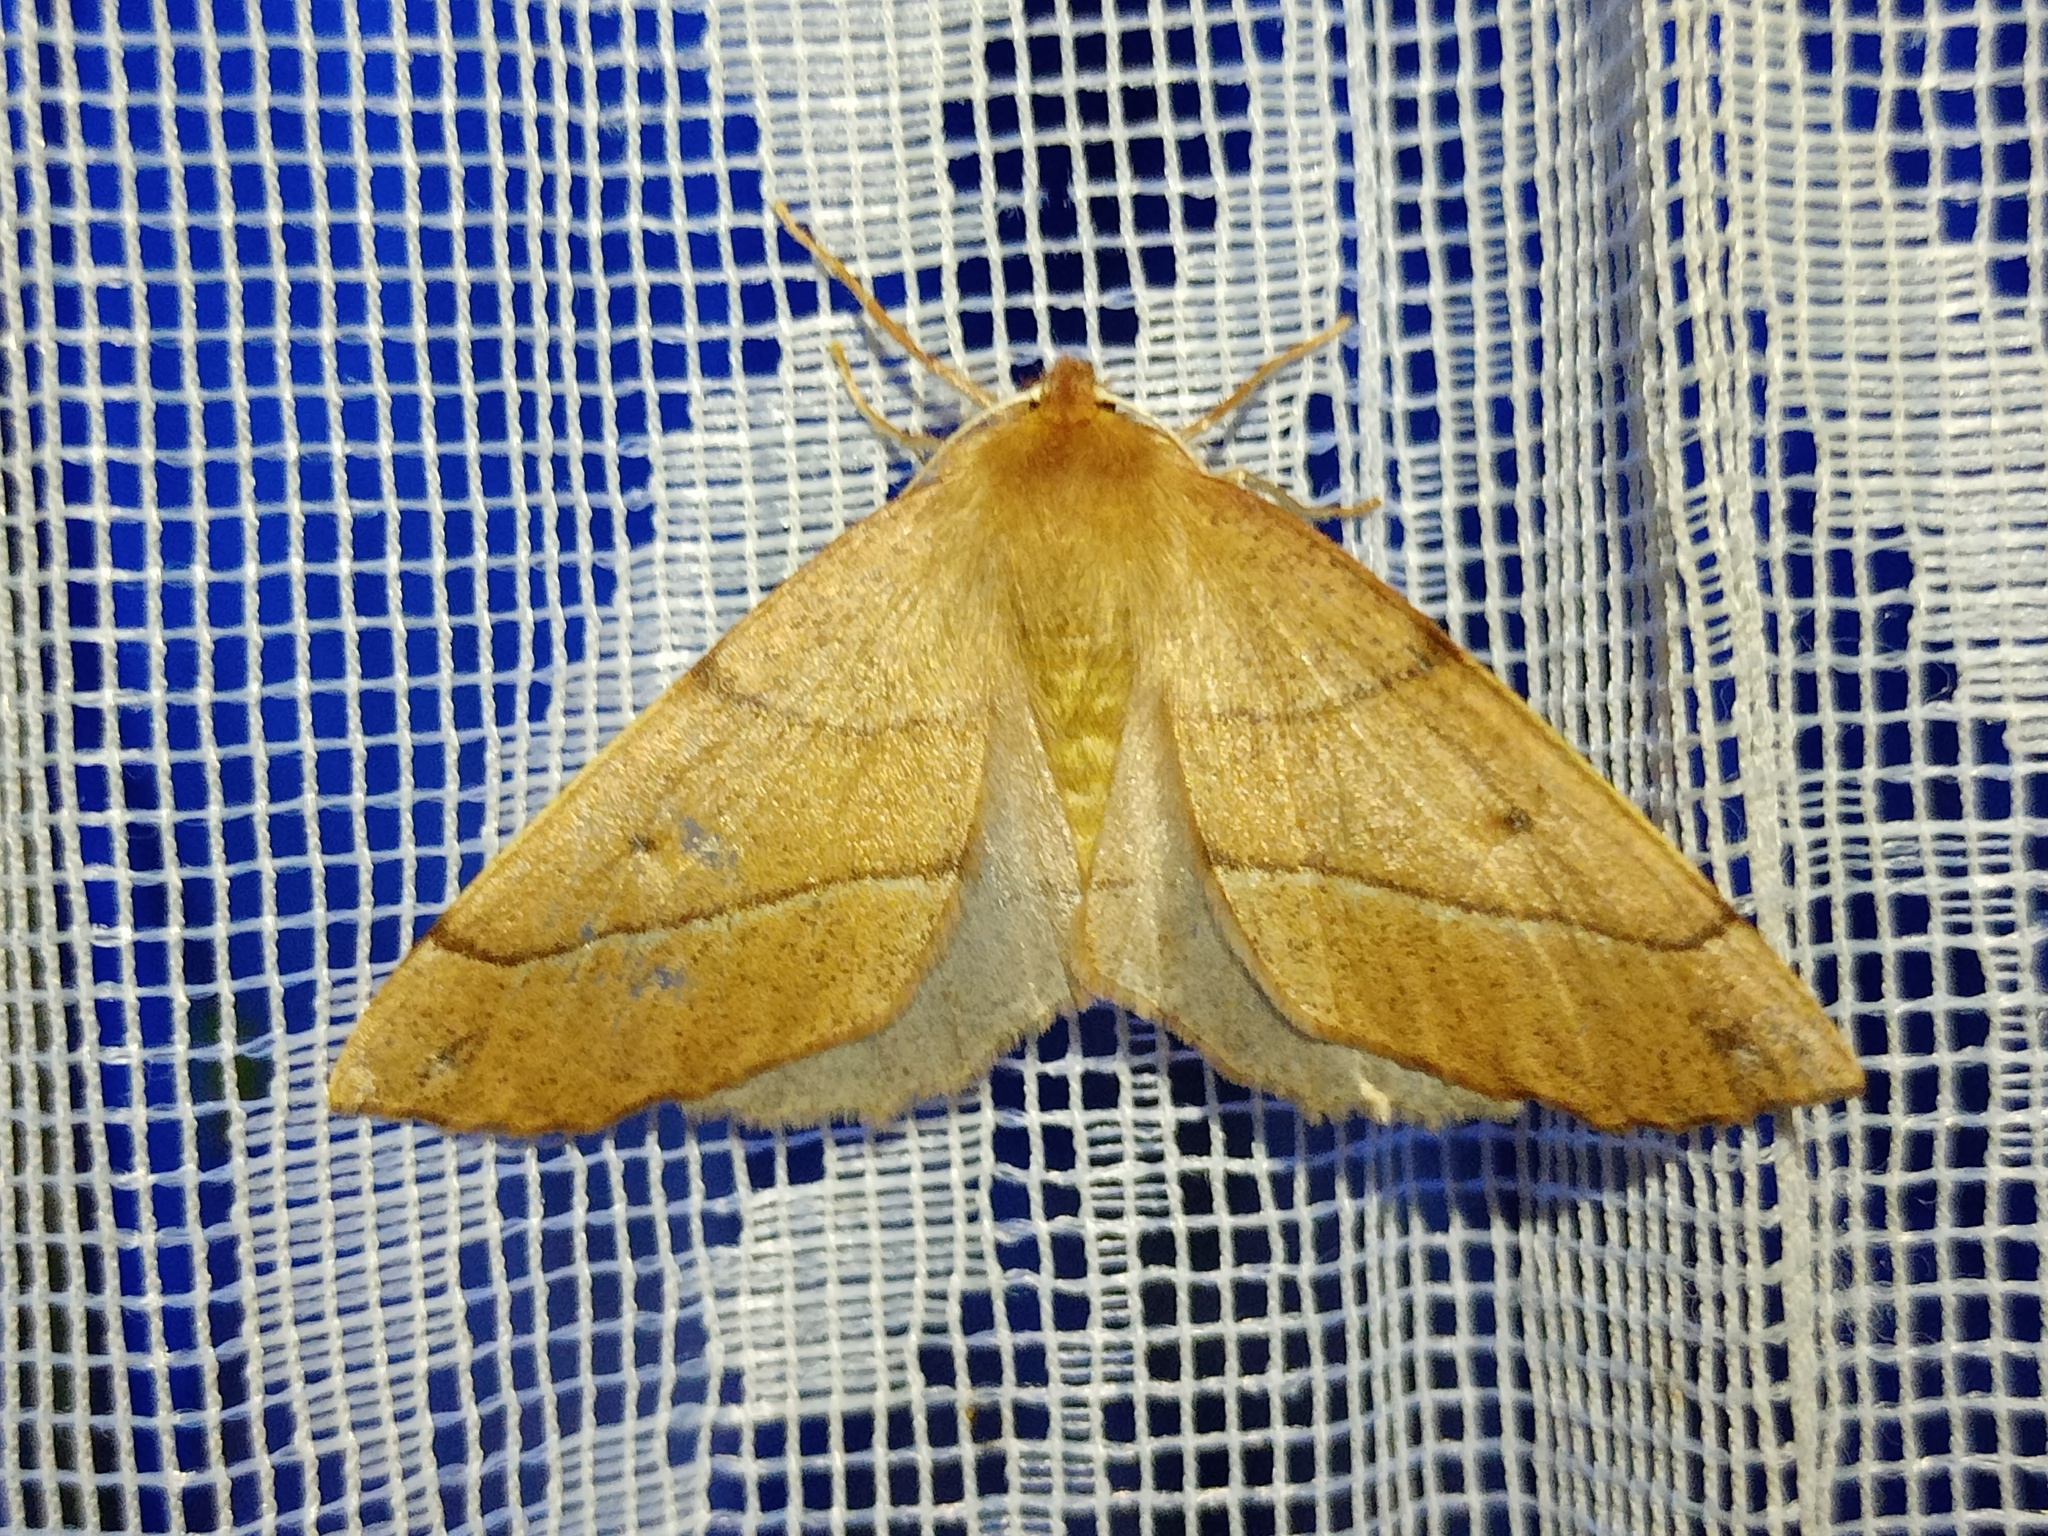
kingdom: Animalia
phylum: Arthropoda
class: Insecta
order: Lepidoptera
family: Geometridae
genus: Colotois
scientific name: Colotois pennaria
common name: Feathered thorn
